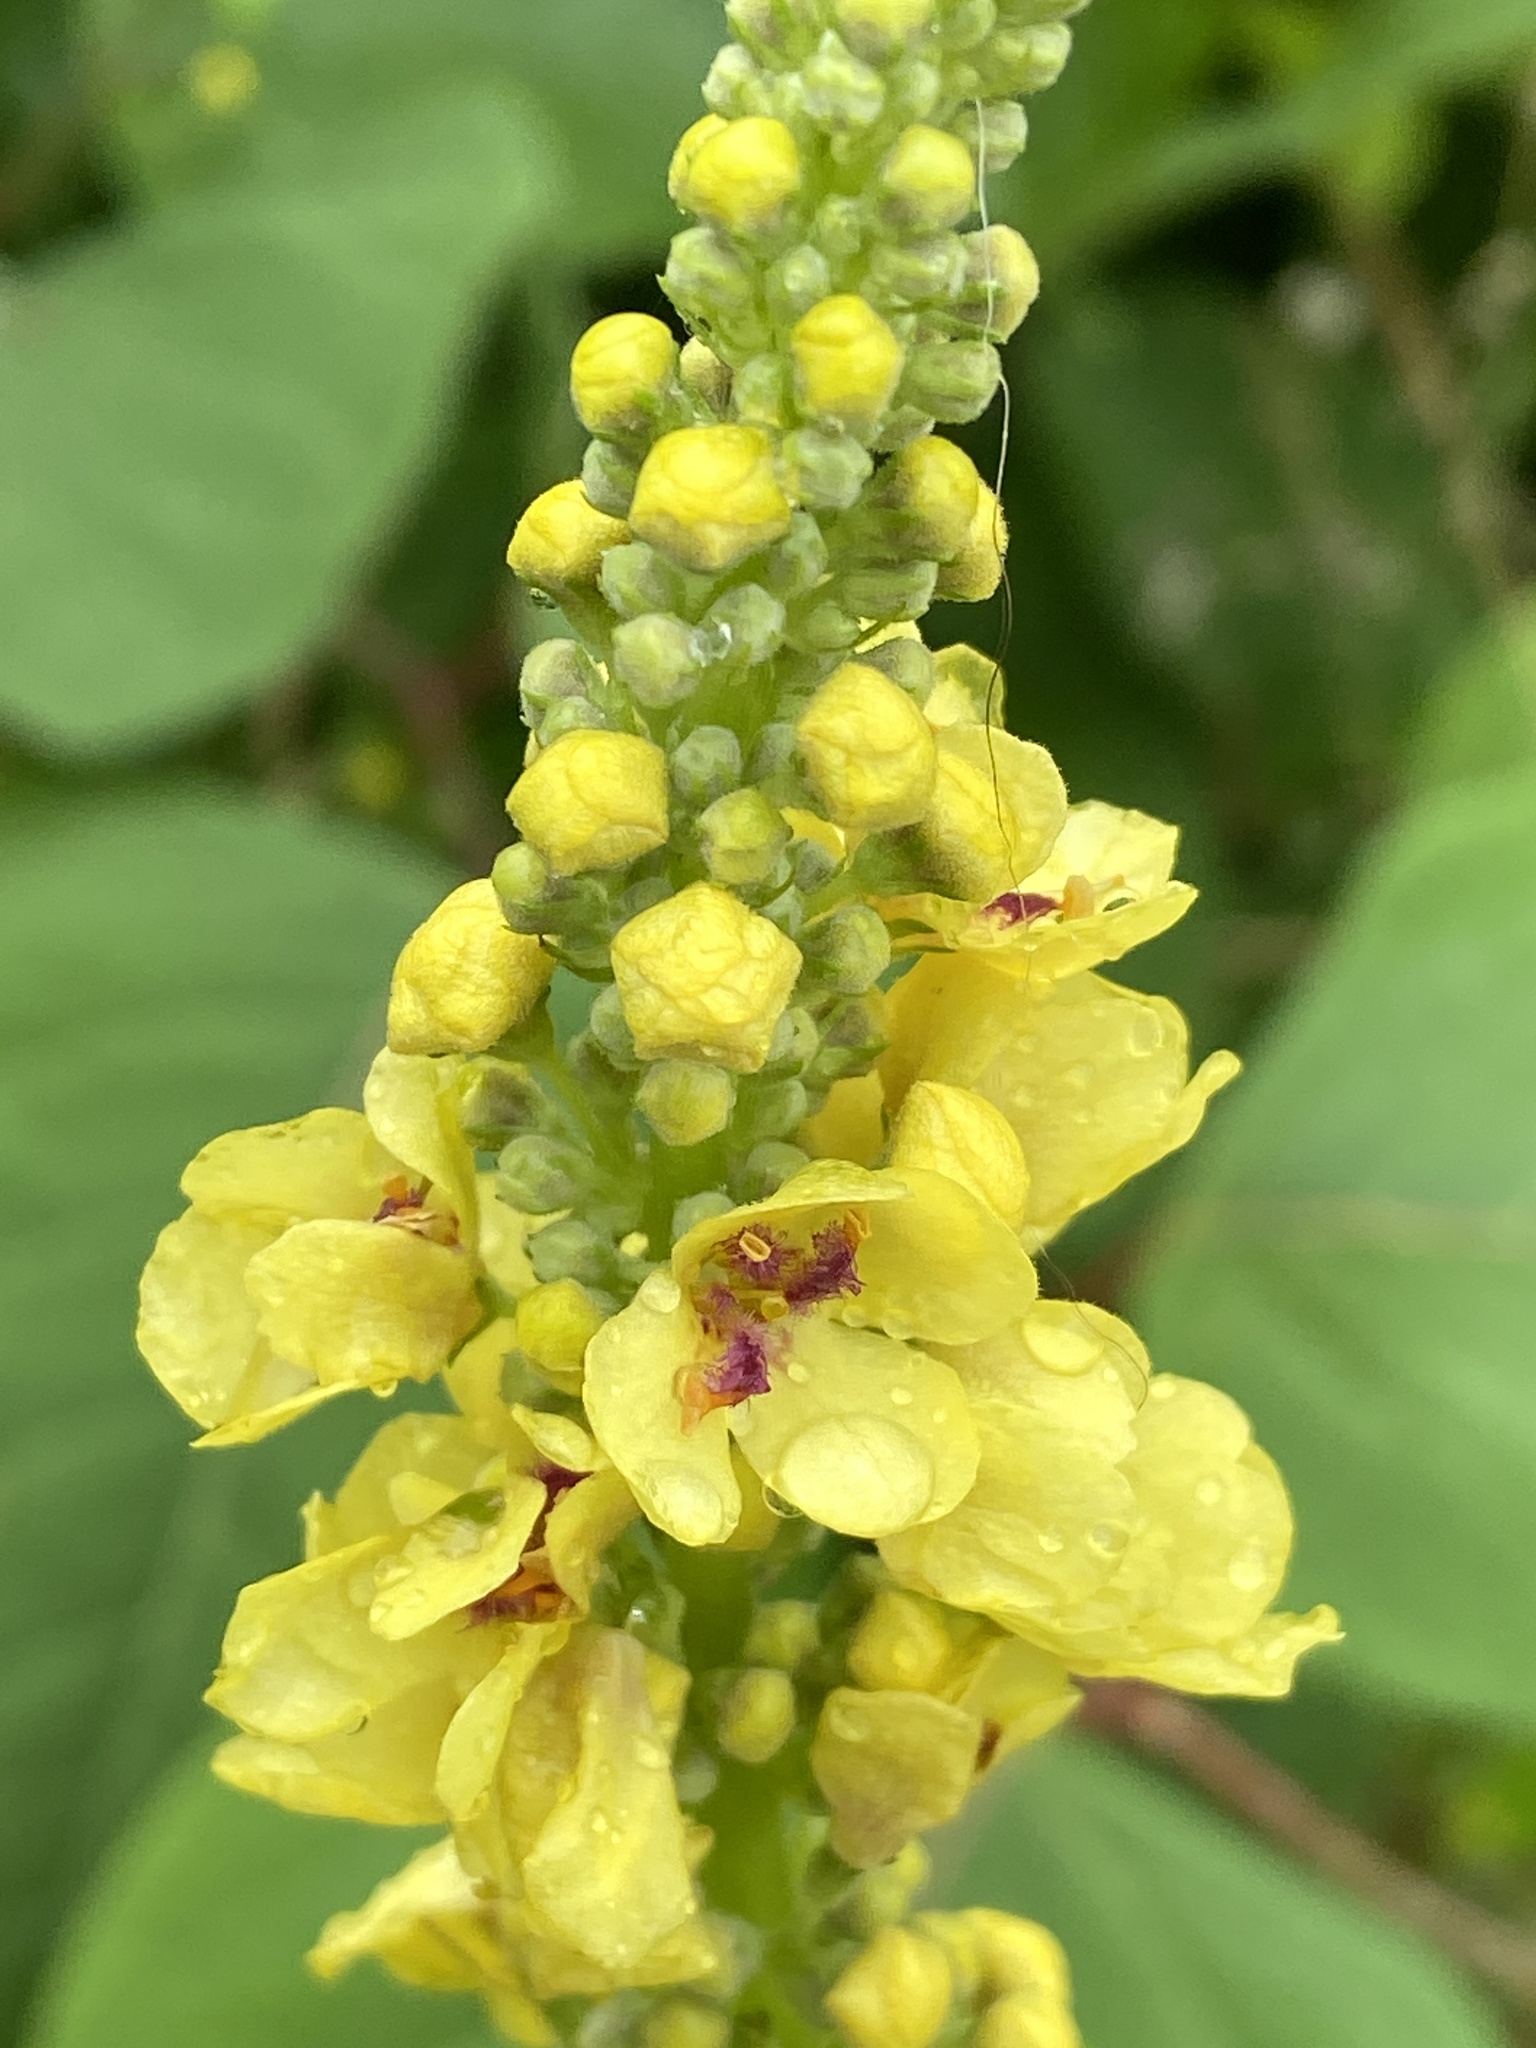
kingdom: Plantae
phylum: Tracheophyta
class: Magnoliopsida
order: Lamiales
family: Scrophulariaceae
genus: Verbascum
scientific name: Verbascum nigrum
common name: Dark mullein
